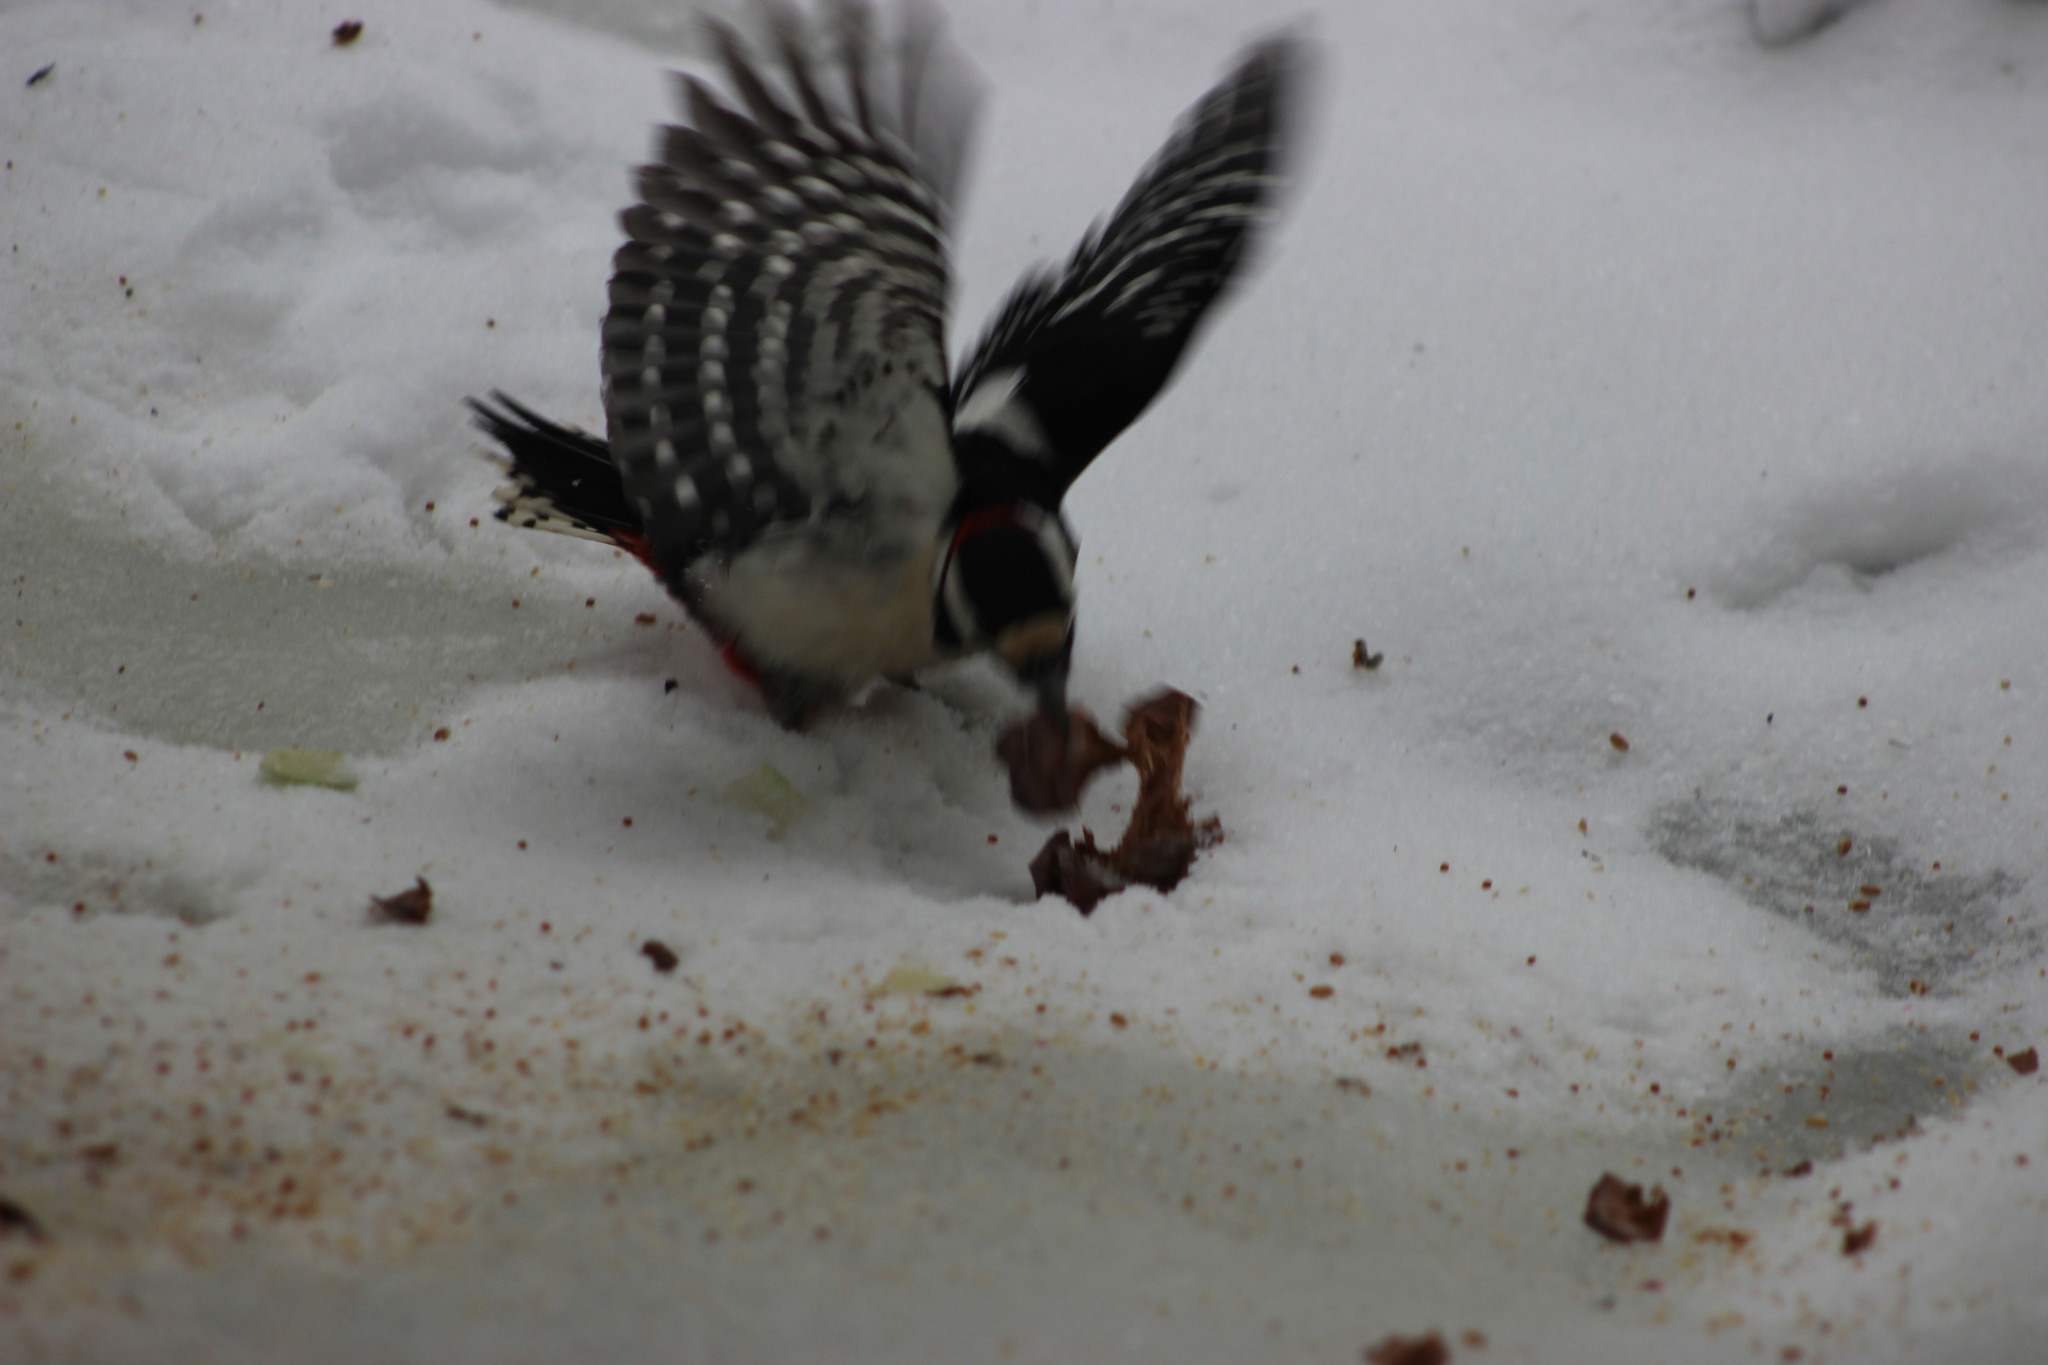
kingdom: Animalia
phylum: Chordata
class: Aves
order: Piciformes
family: Picidae
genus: Dendrocopos
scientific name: Dendrocopos major
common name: Great spotted woodpecker
